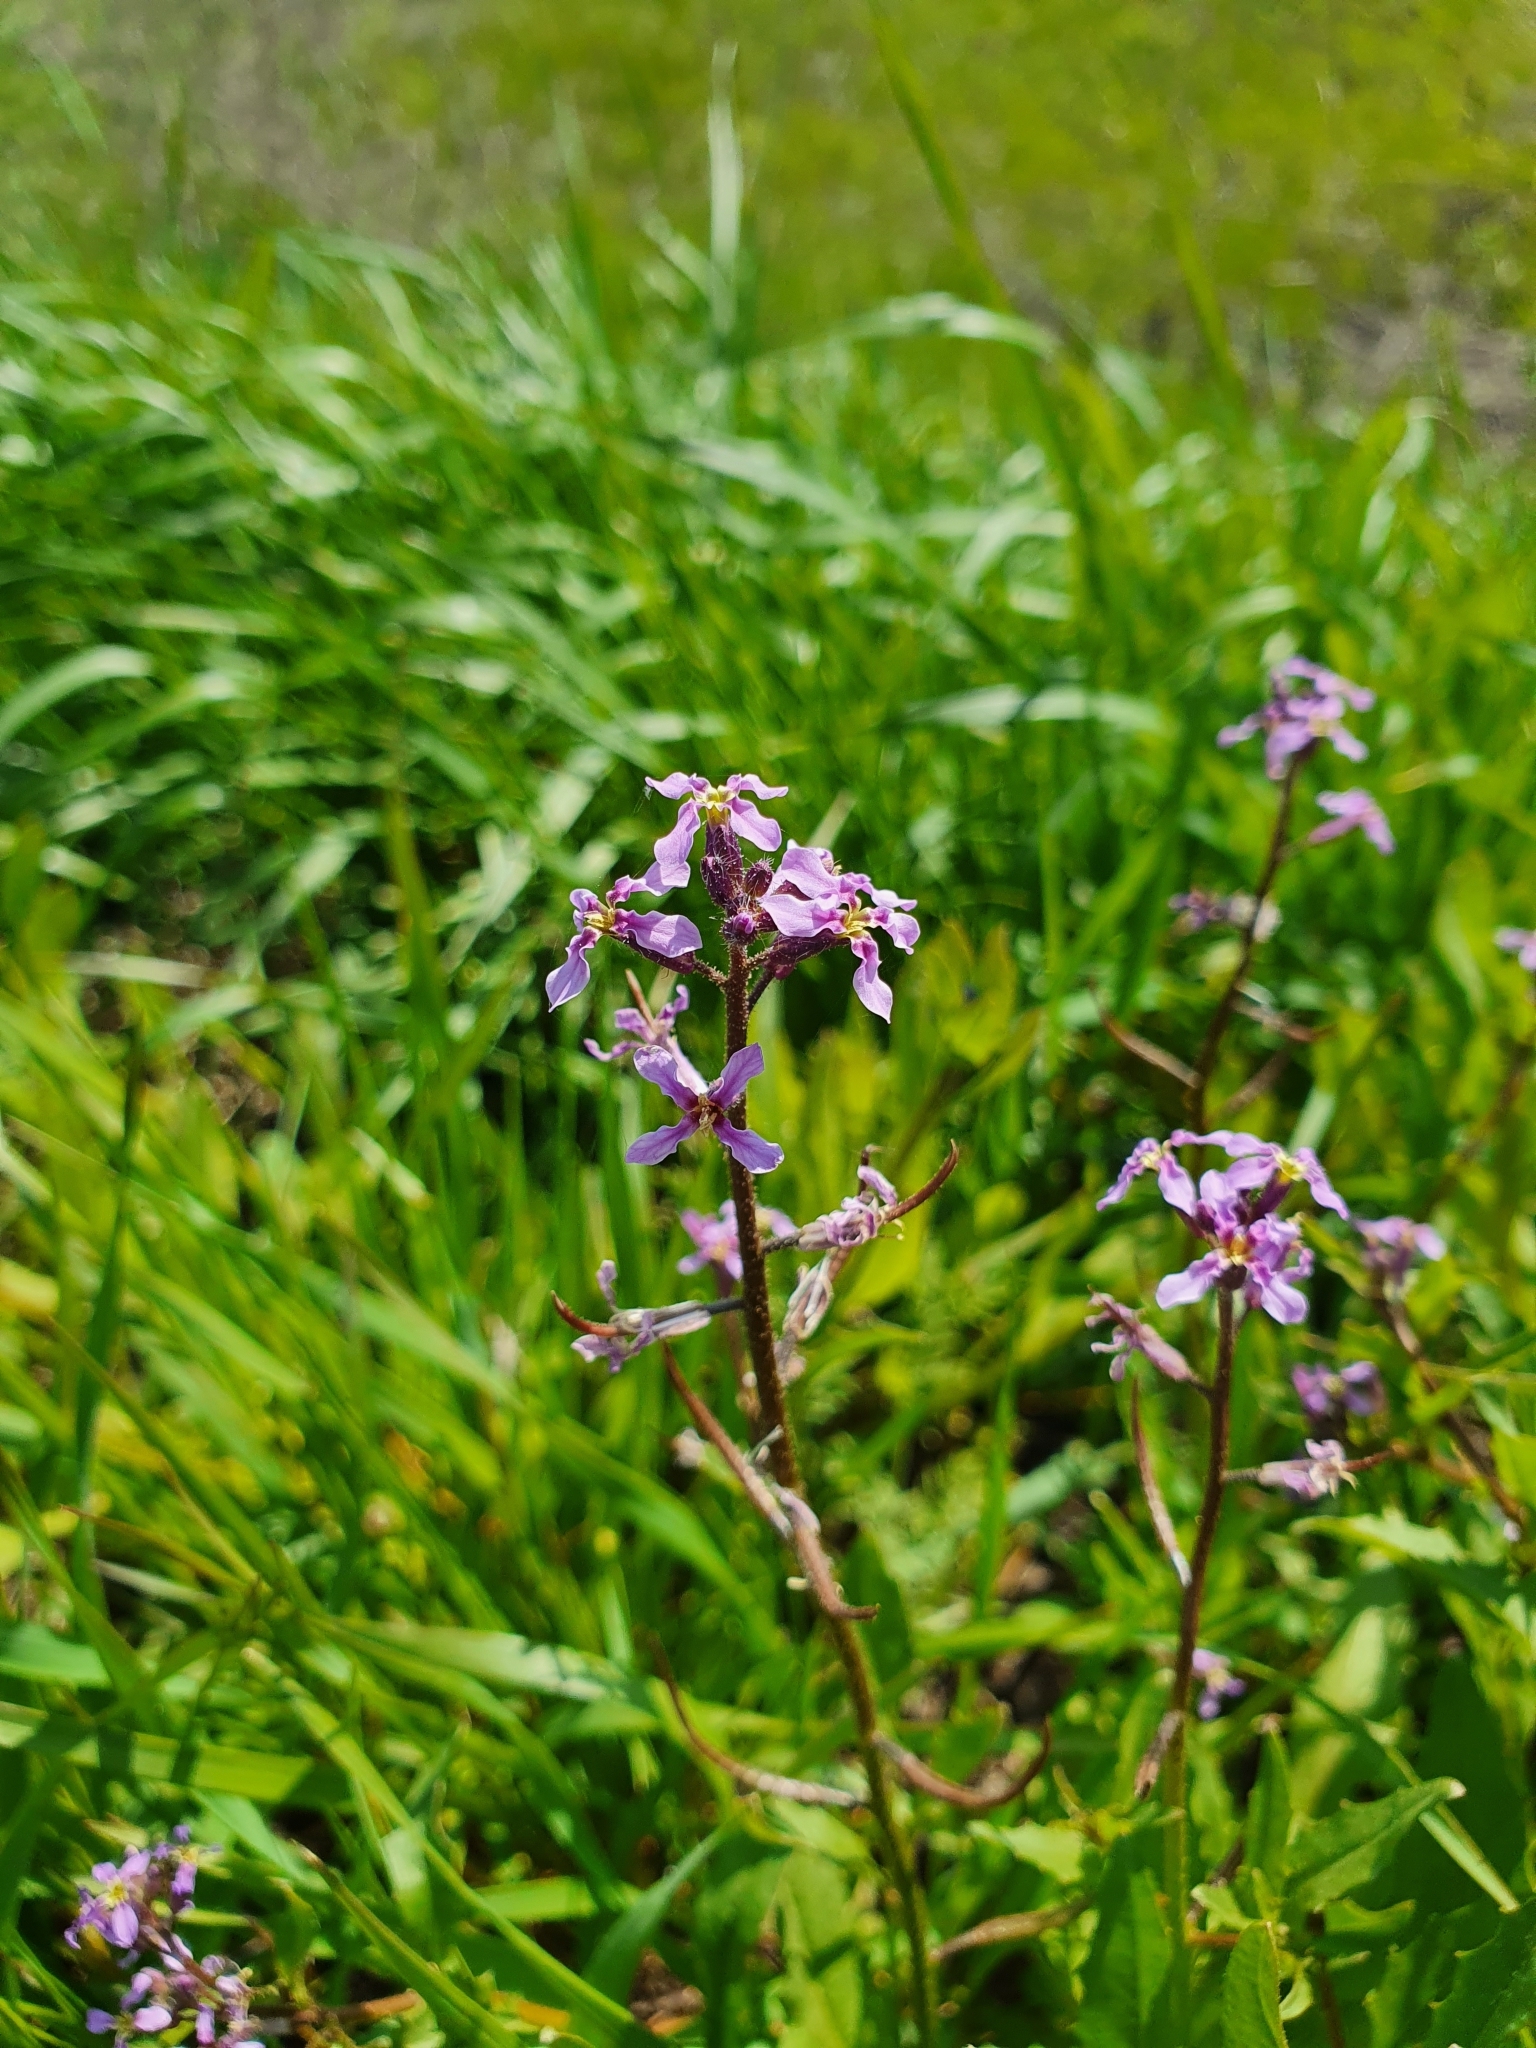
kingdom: Plantae
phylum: Tracheophyta
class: Magnoliopsida
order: Brassicales
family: Brassicaceae
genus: Chorispora
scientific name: Chorispora tenella
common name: Crossflower
